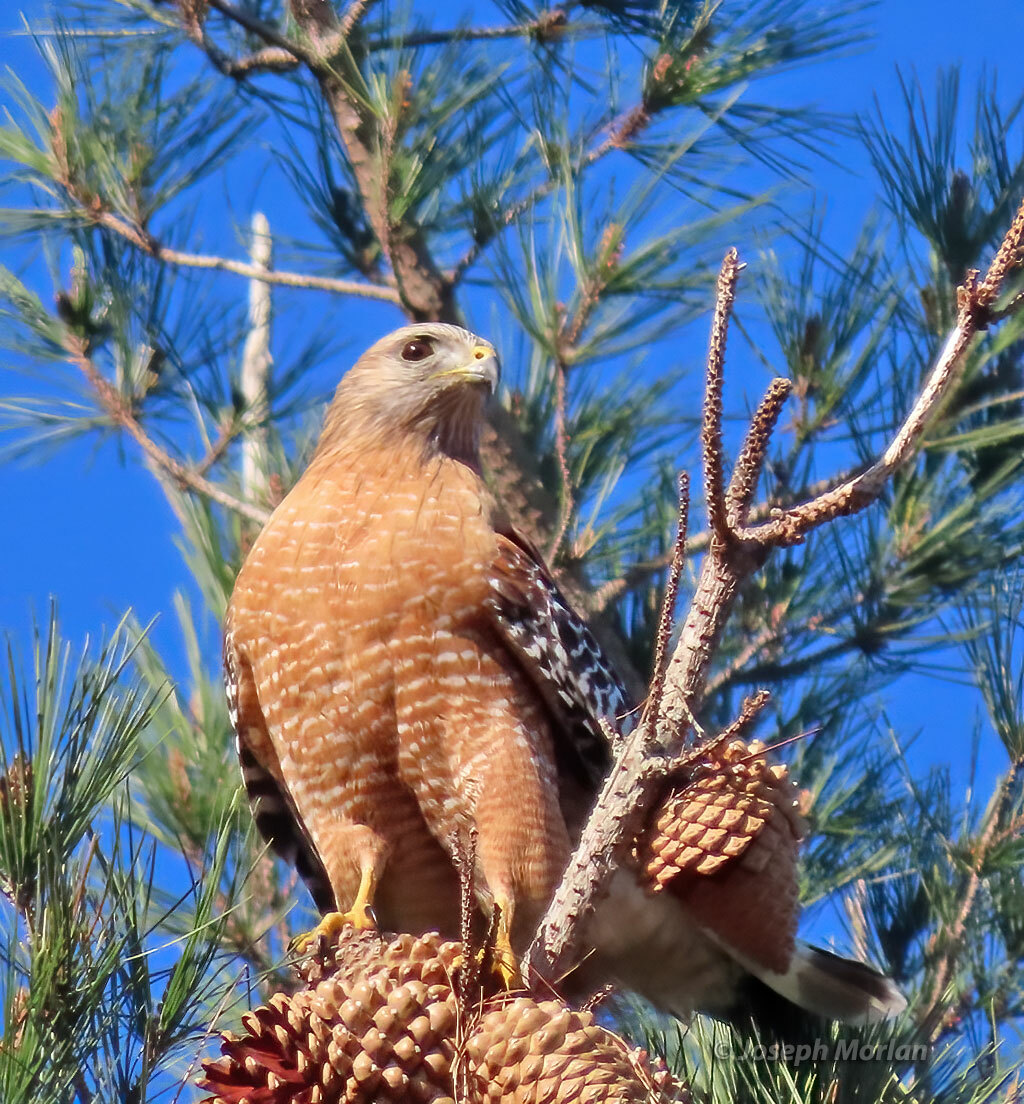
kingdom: Animalia
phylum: Chordata
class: Aves
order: Accipitriformes
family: Accipitridae
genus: Buteo
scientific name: Buteo lineatus
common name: Red-shouldered hawk
